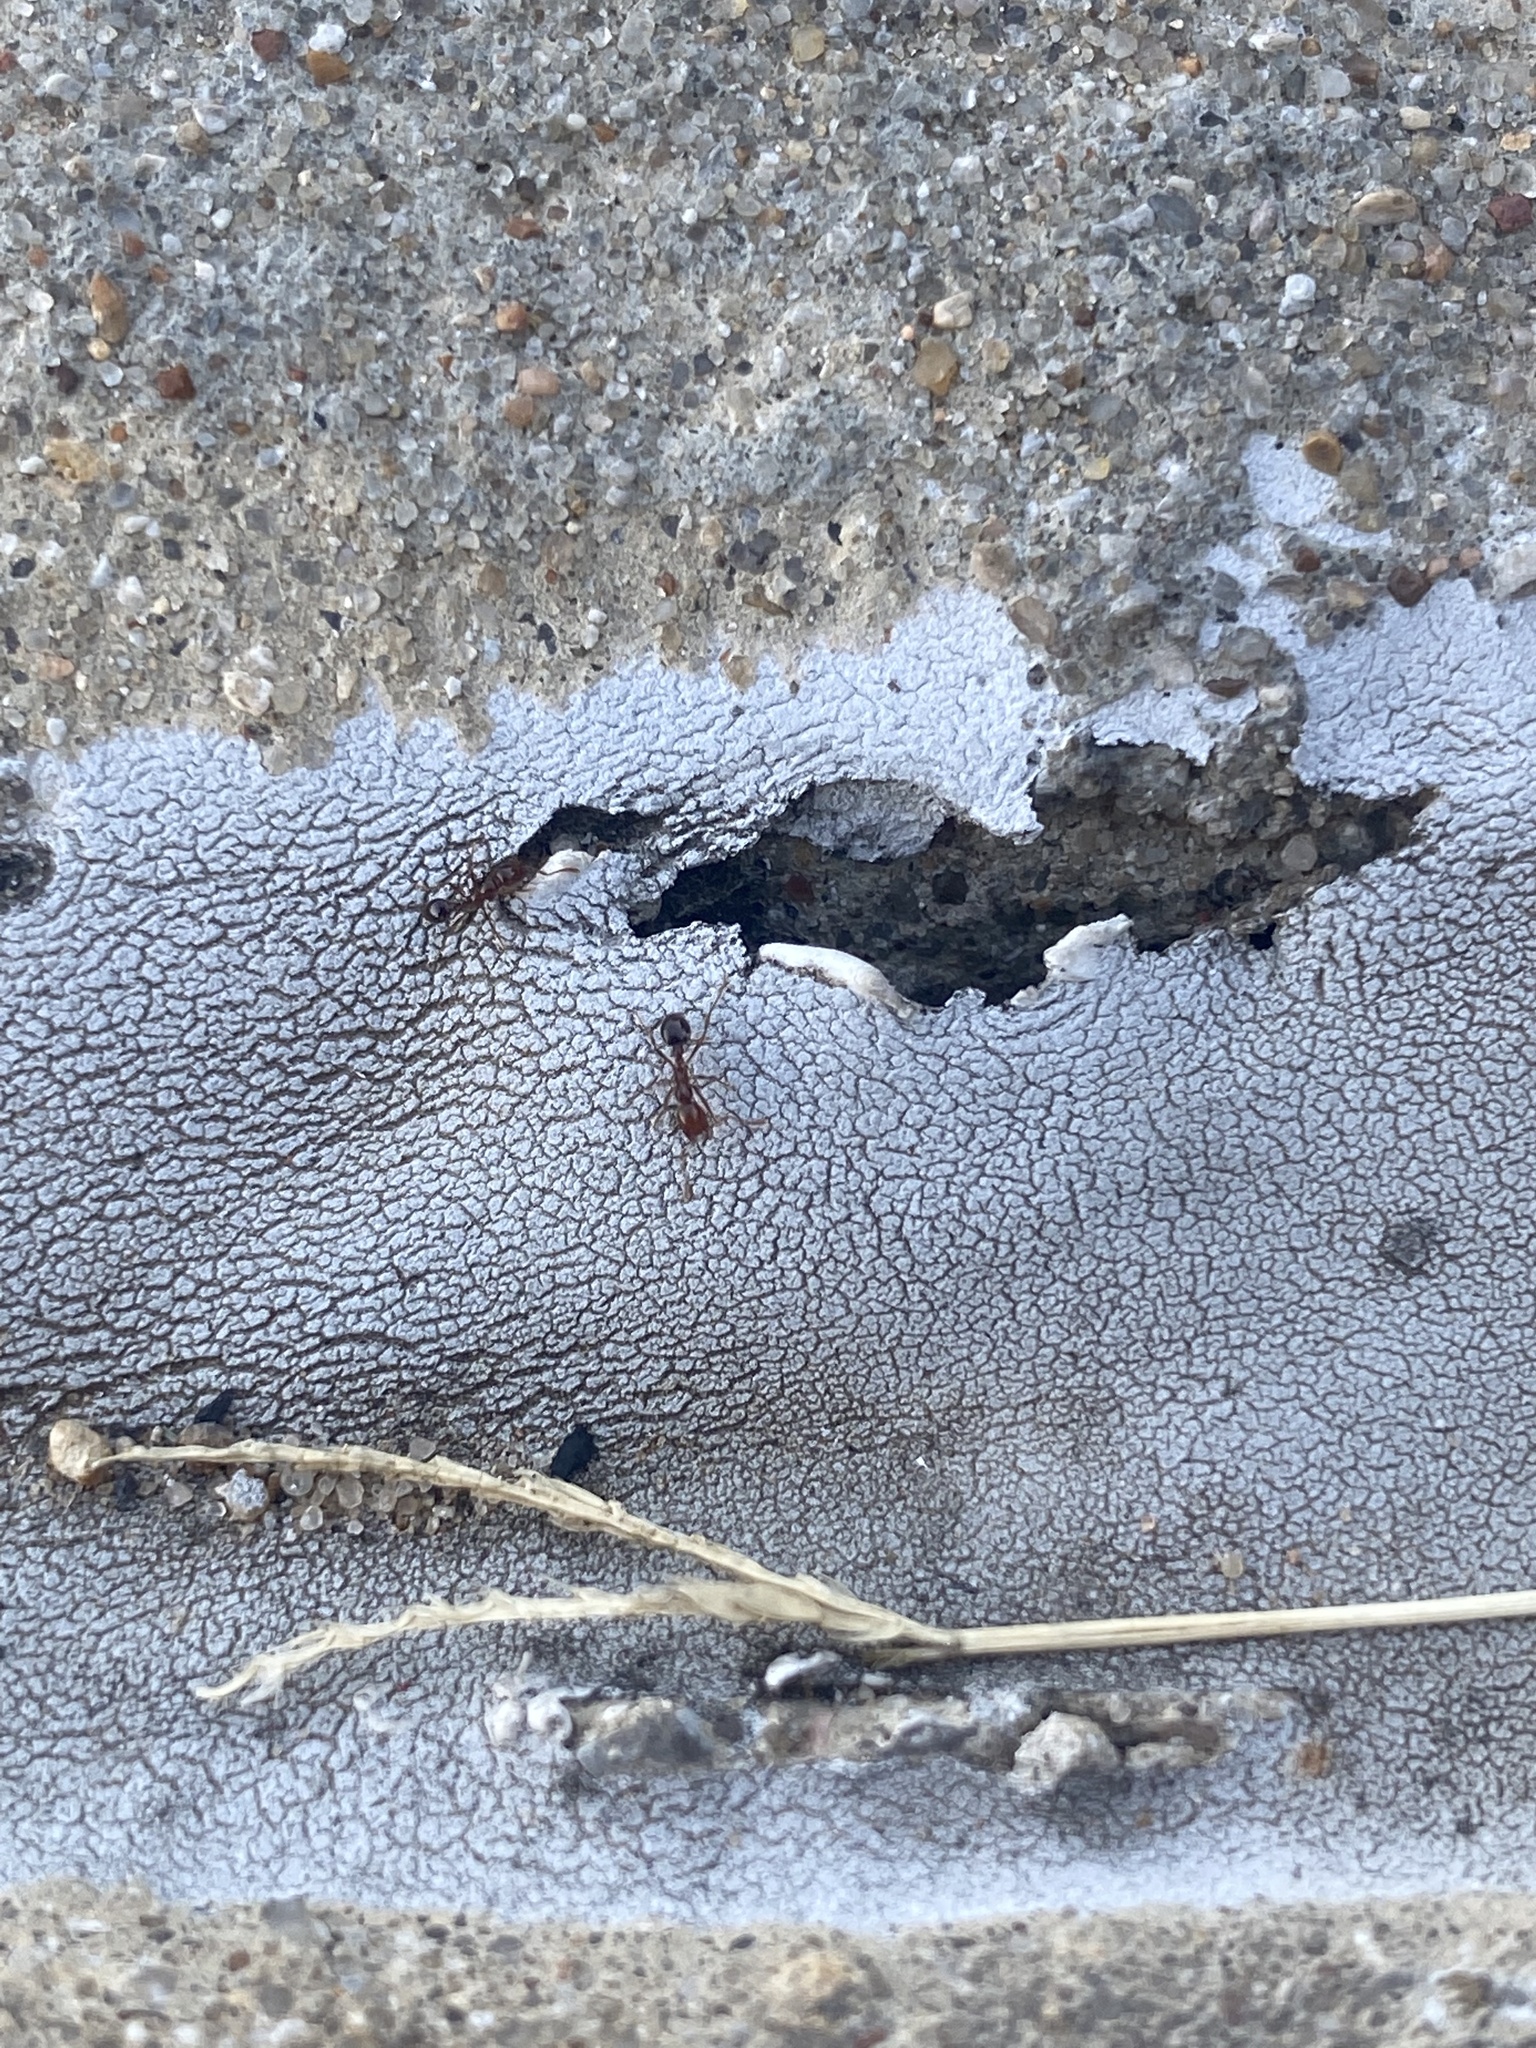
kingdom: Animalia
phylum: Arthropoda
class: Insecta
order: Hymenoptera
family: Formicidae
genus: Solenopsis
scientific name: Solenopsis invicta
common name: Red imported fire ant
